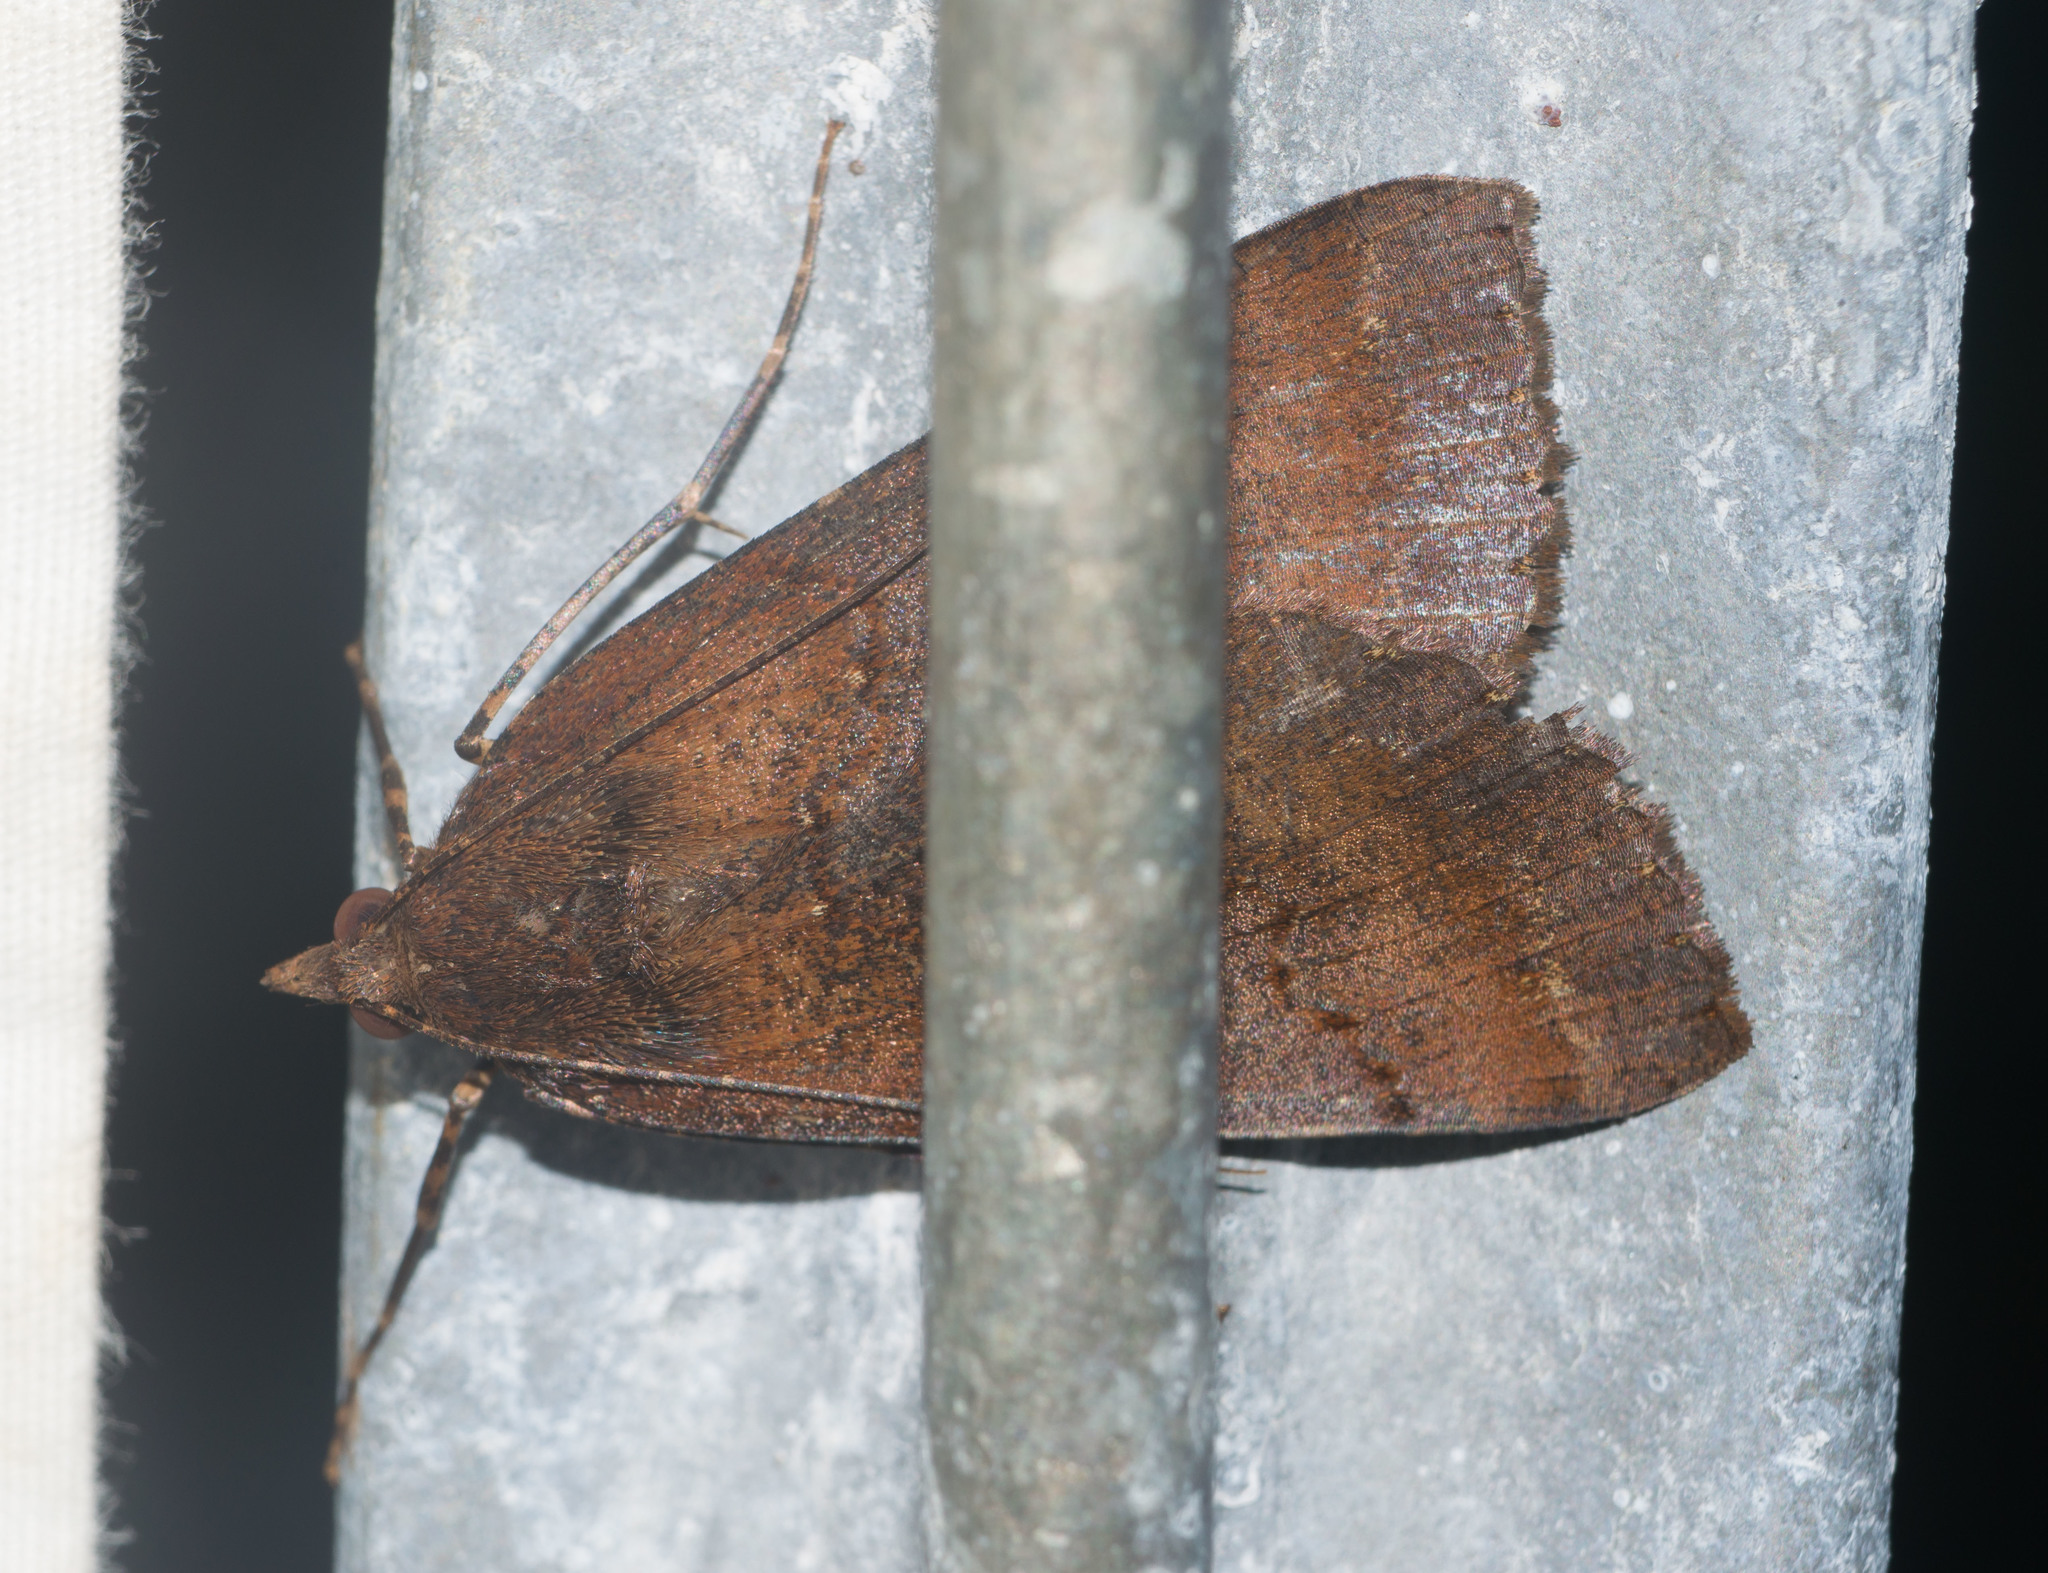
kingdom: Animalia
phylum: Arthropoda
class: Insecta
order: Lepidoptera
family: Geometridae
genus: Scotorythra
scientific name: Scotorythra rara
